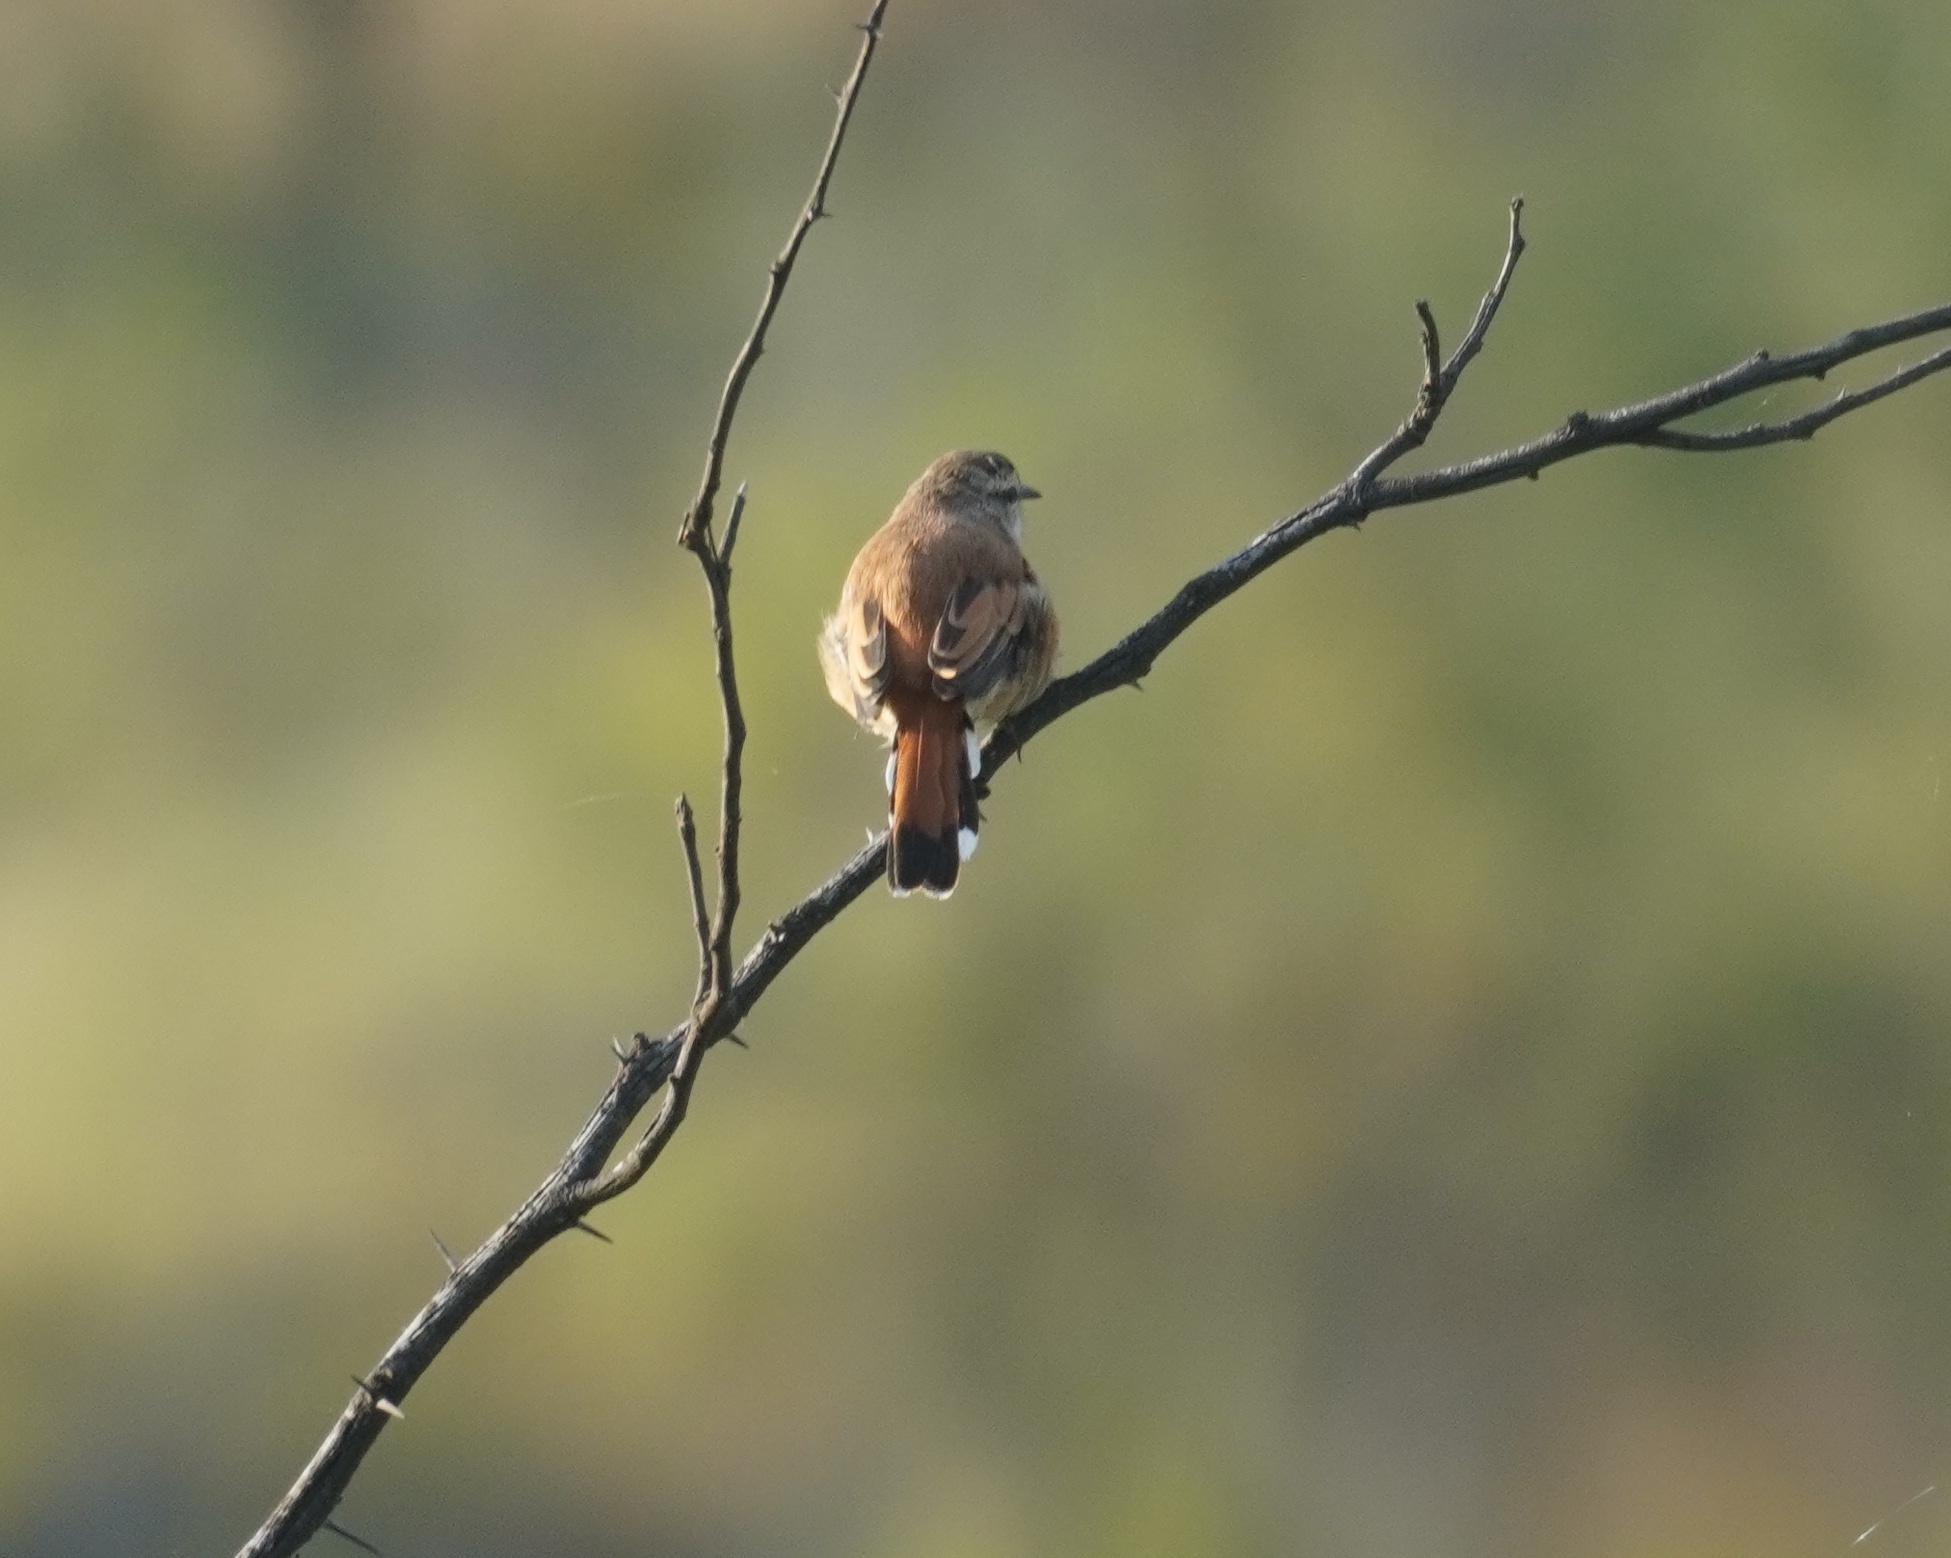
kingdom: Animalia
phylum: Chordata
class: Aves
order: Passeriformes
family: Muscicapidae
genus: Erythropygia
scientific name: Erythropygia paena
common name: Kalahari scrub robin
